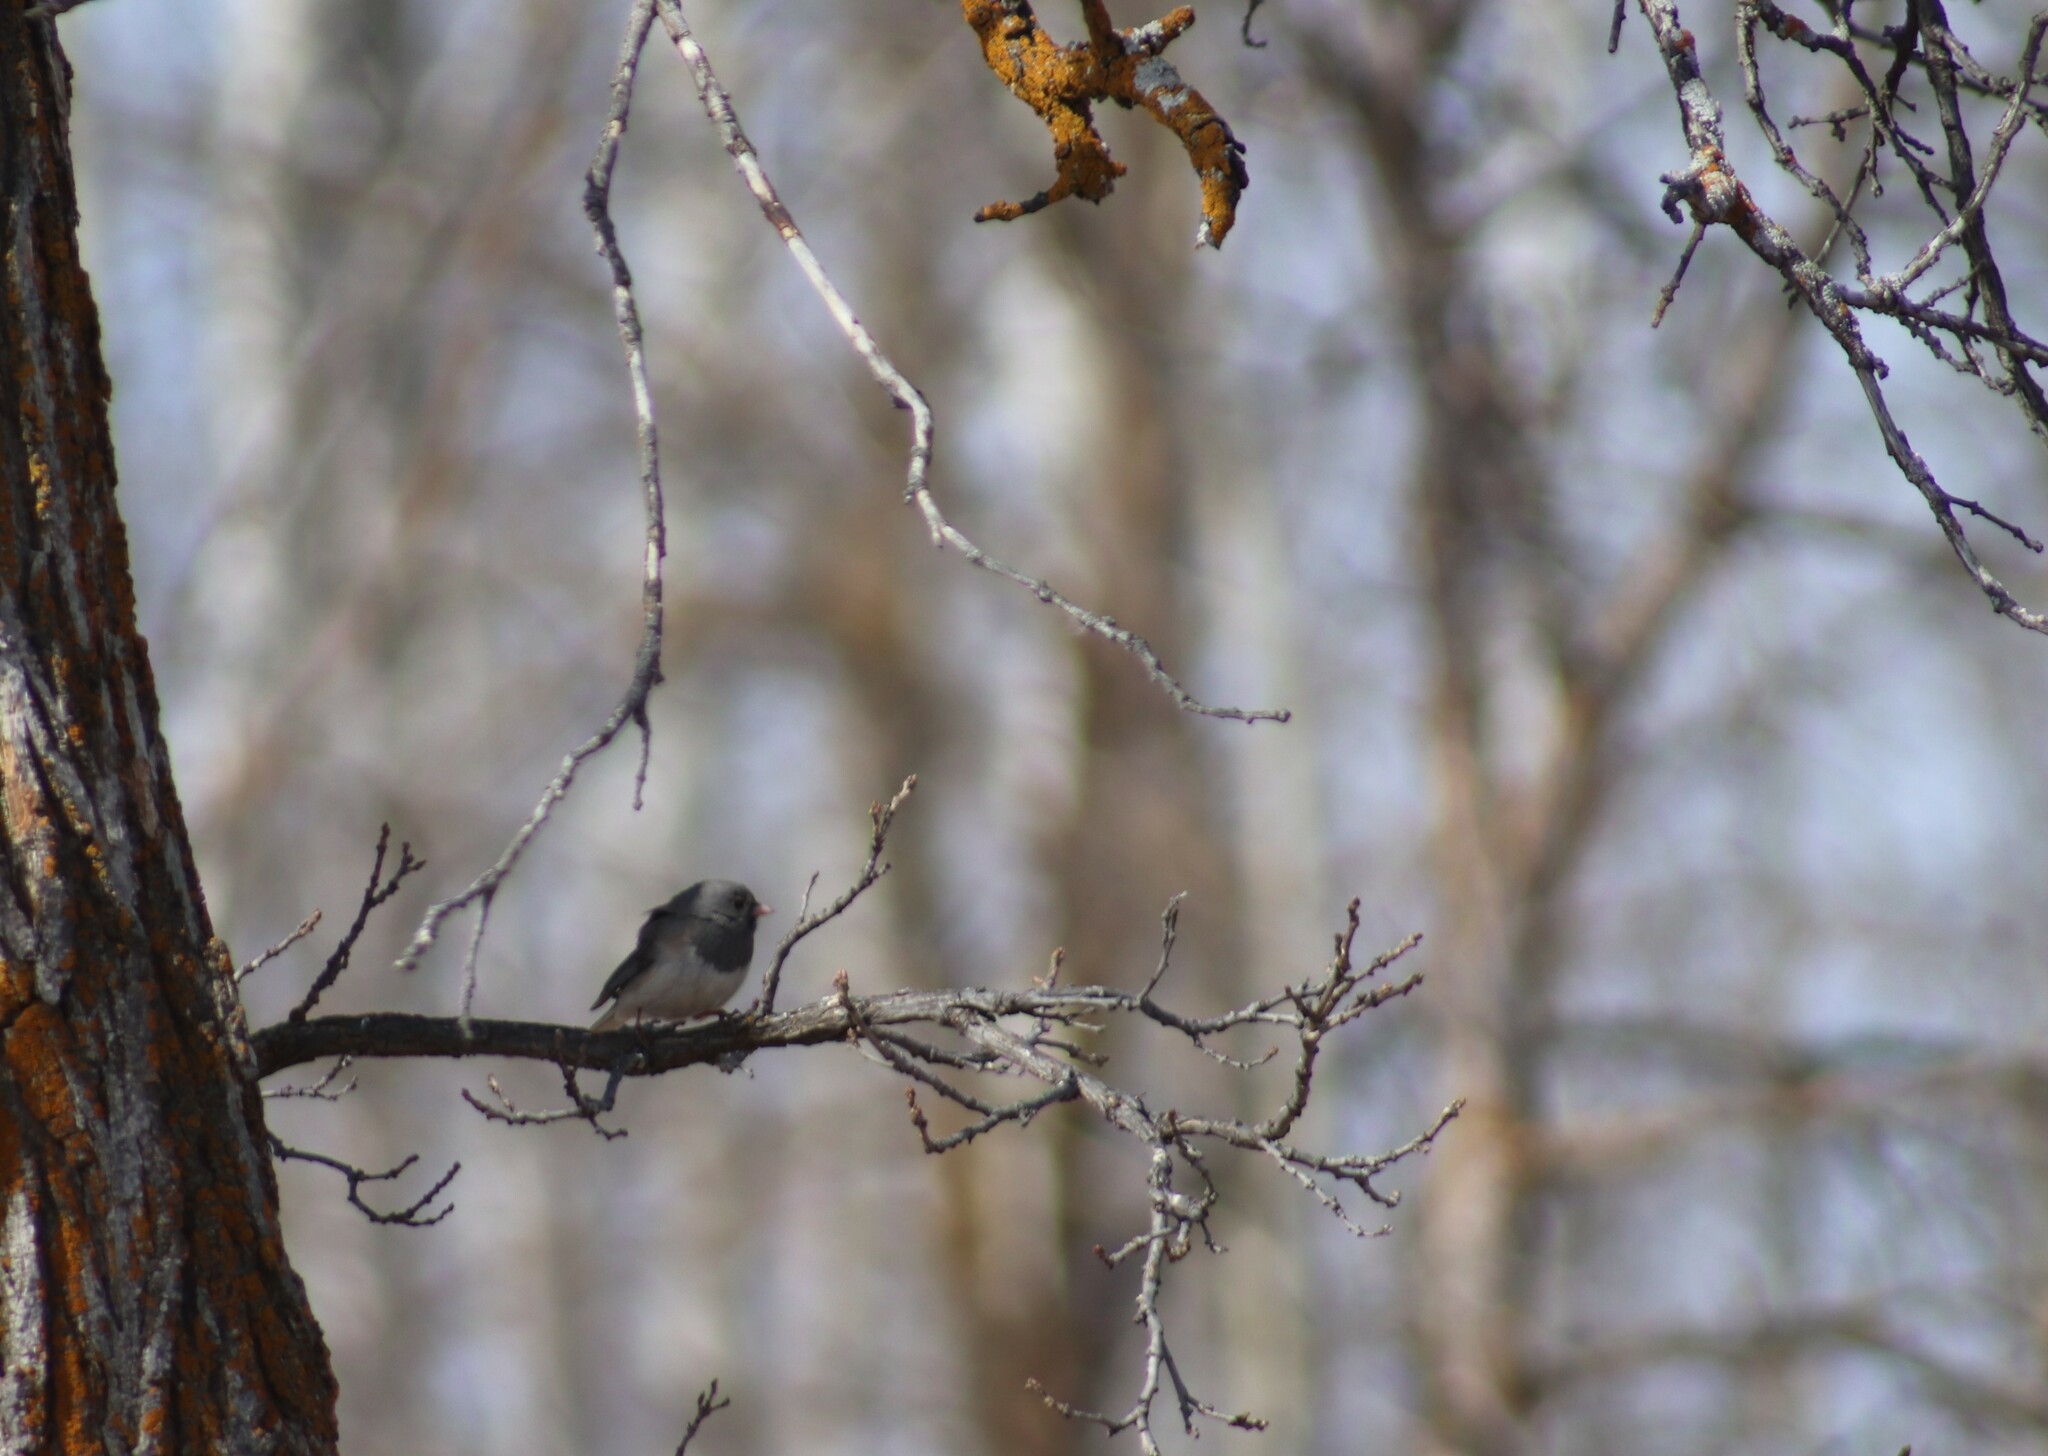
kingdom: Animalia
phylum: Chordata
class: Aves
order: Passeriformes
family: Passerellidae
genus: Junco
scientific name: Junco hyemalis
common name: Dark-eyed junco
